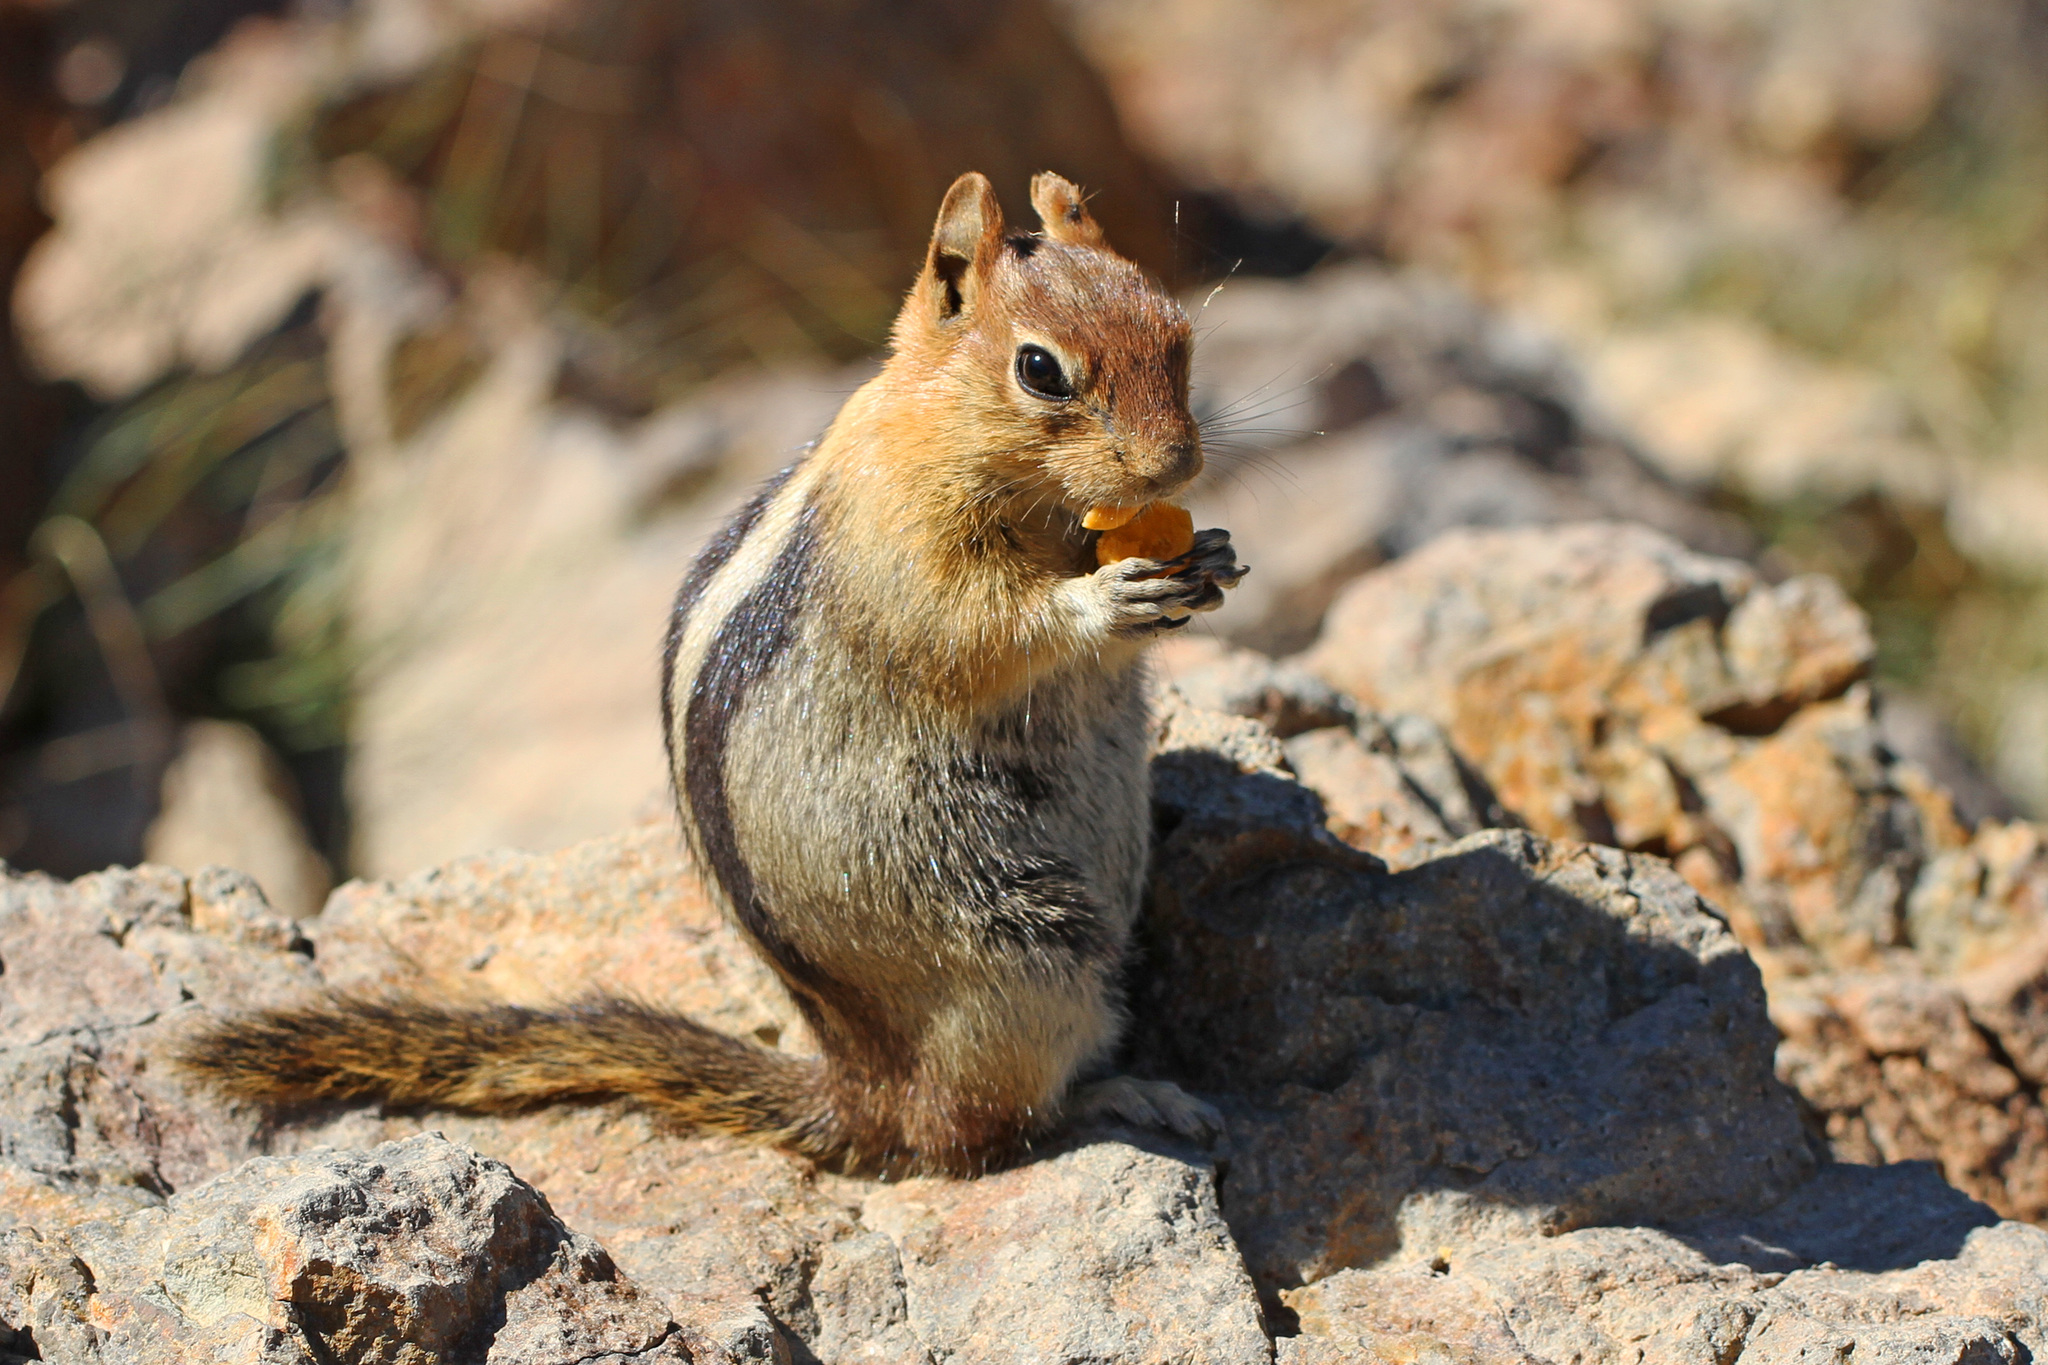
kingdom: Animalia
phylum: Chordata
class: Mammalia
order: Rodentia
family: Sciuridae
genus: Callospermophilus
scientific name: Callospermophilus lateralis
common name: Golden-mantled ground squirrel
